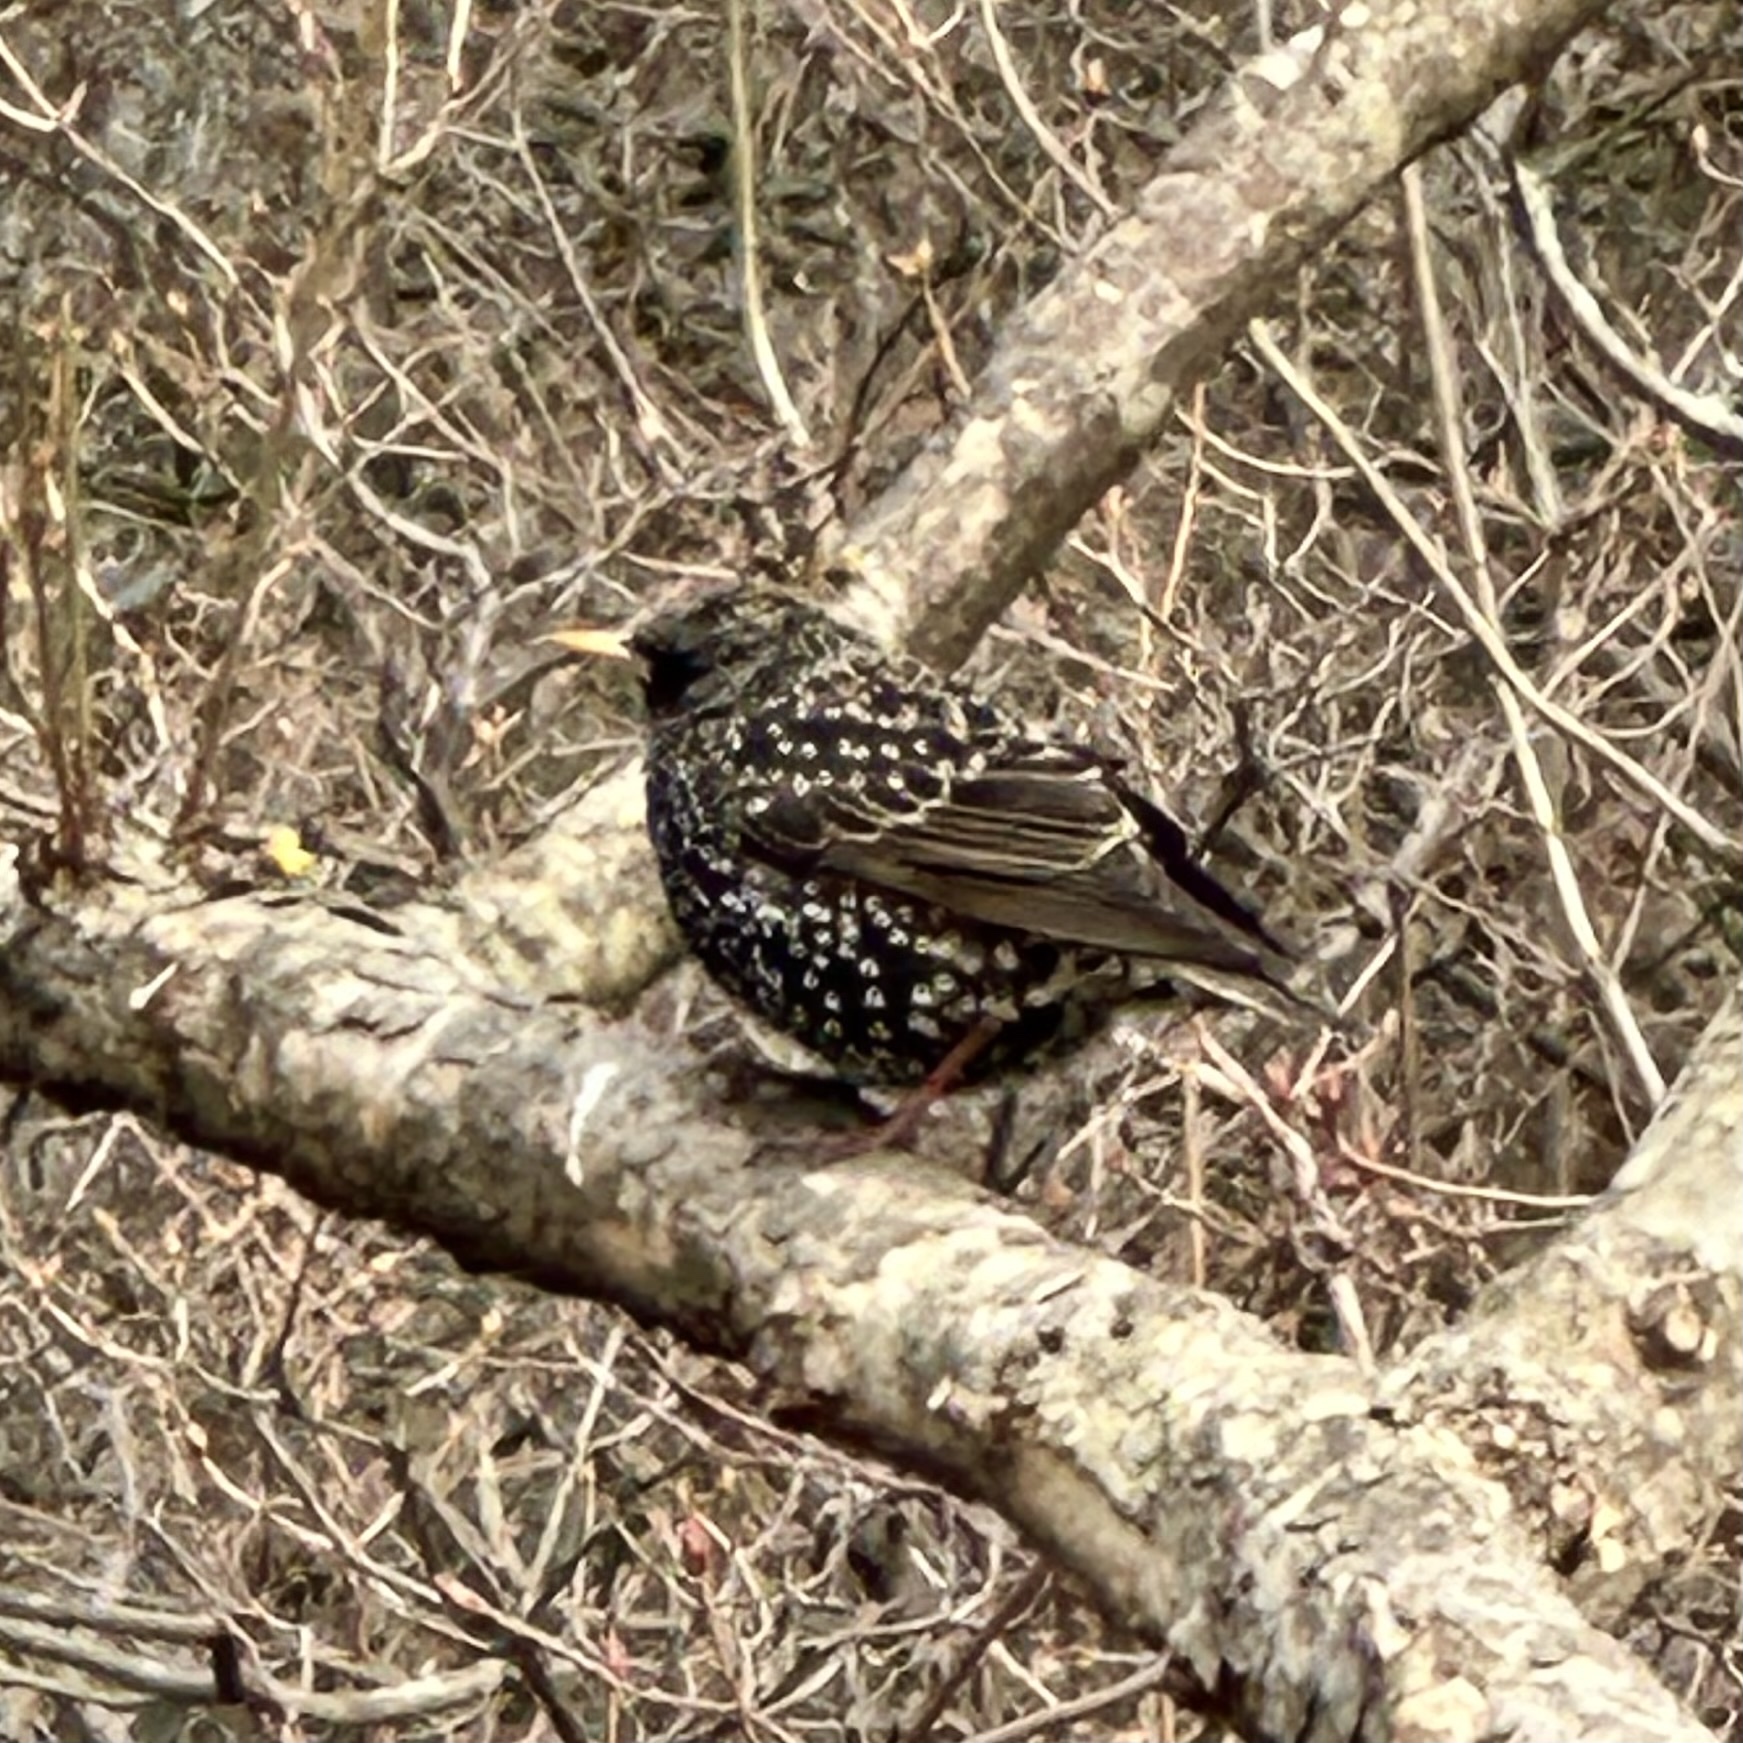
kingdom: Animalia
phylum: Chordata
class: Aves
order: Passeriformes
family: Sturnidae
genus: Sturnus
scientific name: Sturnus vulgaris
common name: Common starling
